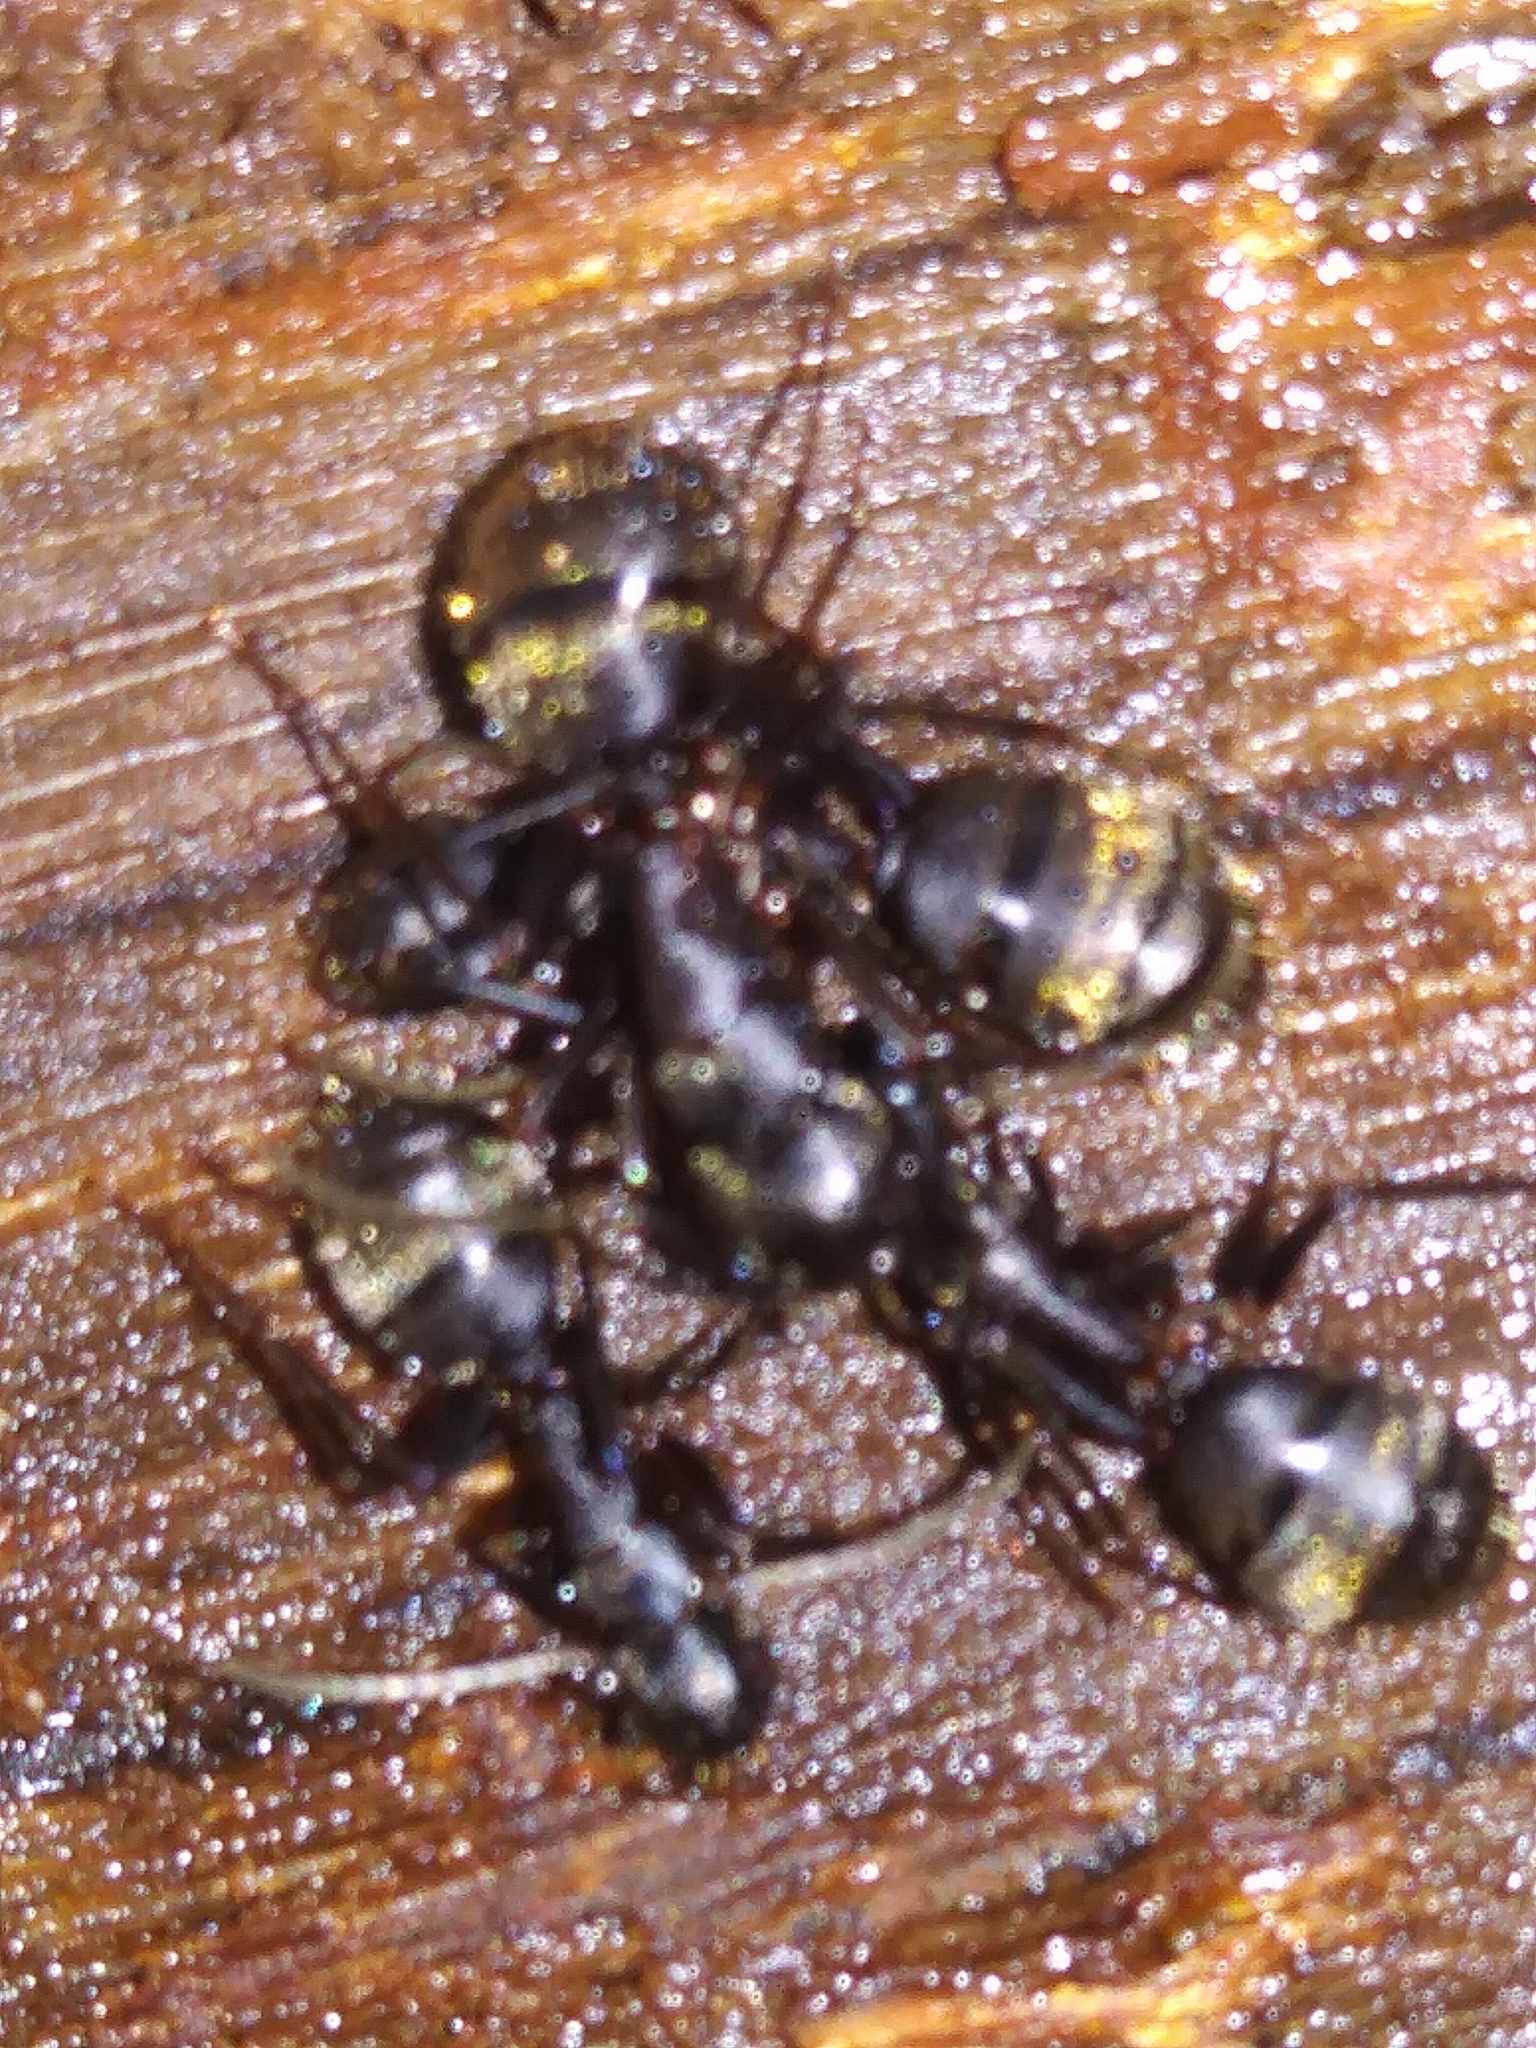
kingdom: Animalia
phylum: Arthropoda
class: Insecta
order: Hymenoptera
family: Formicidae
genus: Camponotus
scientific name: Camponotus pennsylvanicus
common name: Black carpenter ant
